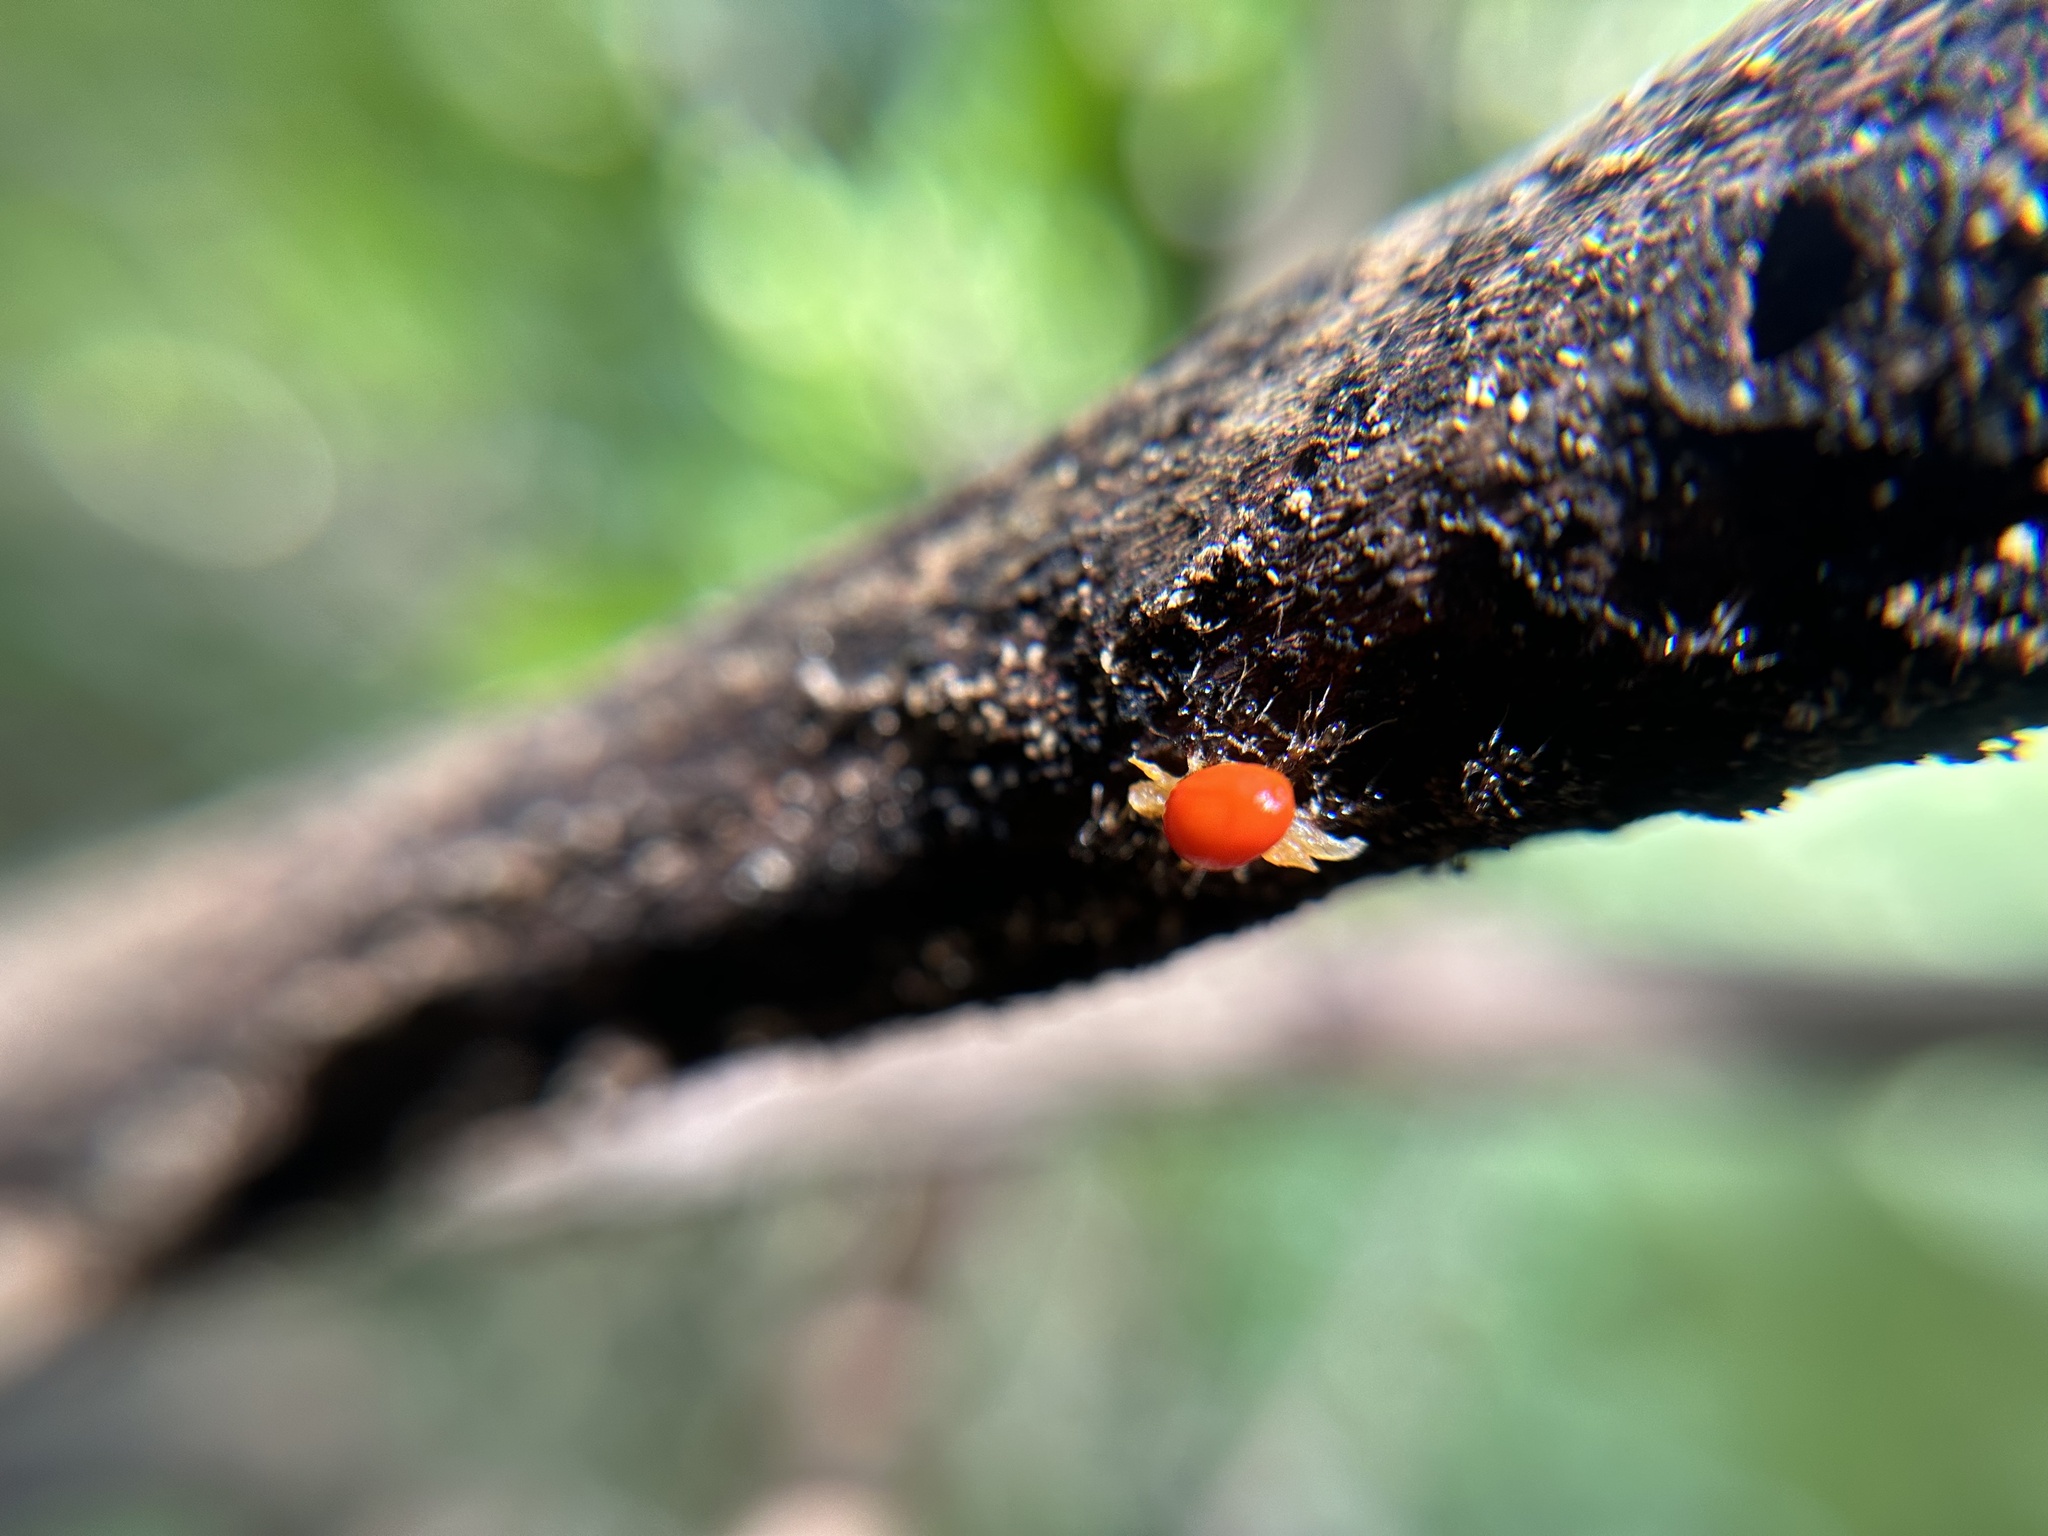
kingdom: Plantae
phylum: Tracheophyta
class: Liliopsida
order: Zingiberales
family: Zingiberaceae
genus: Hedychium
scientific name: Hedychium gardnerianum
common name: Himalayan ginger
